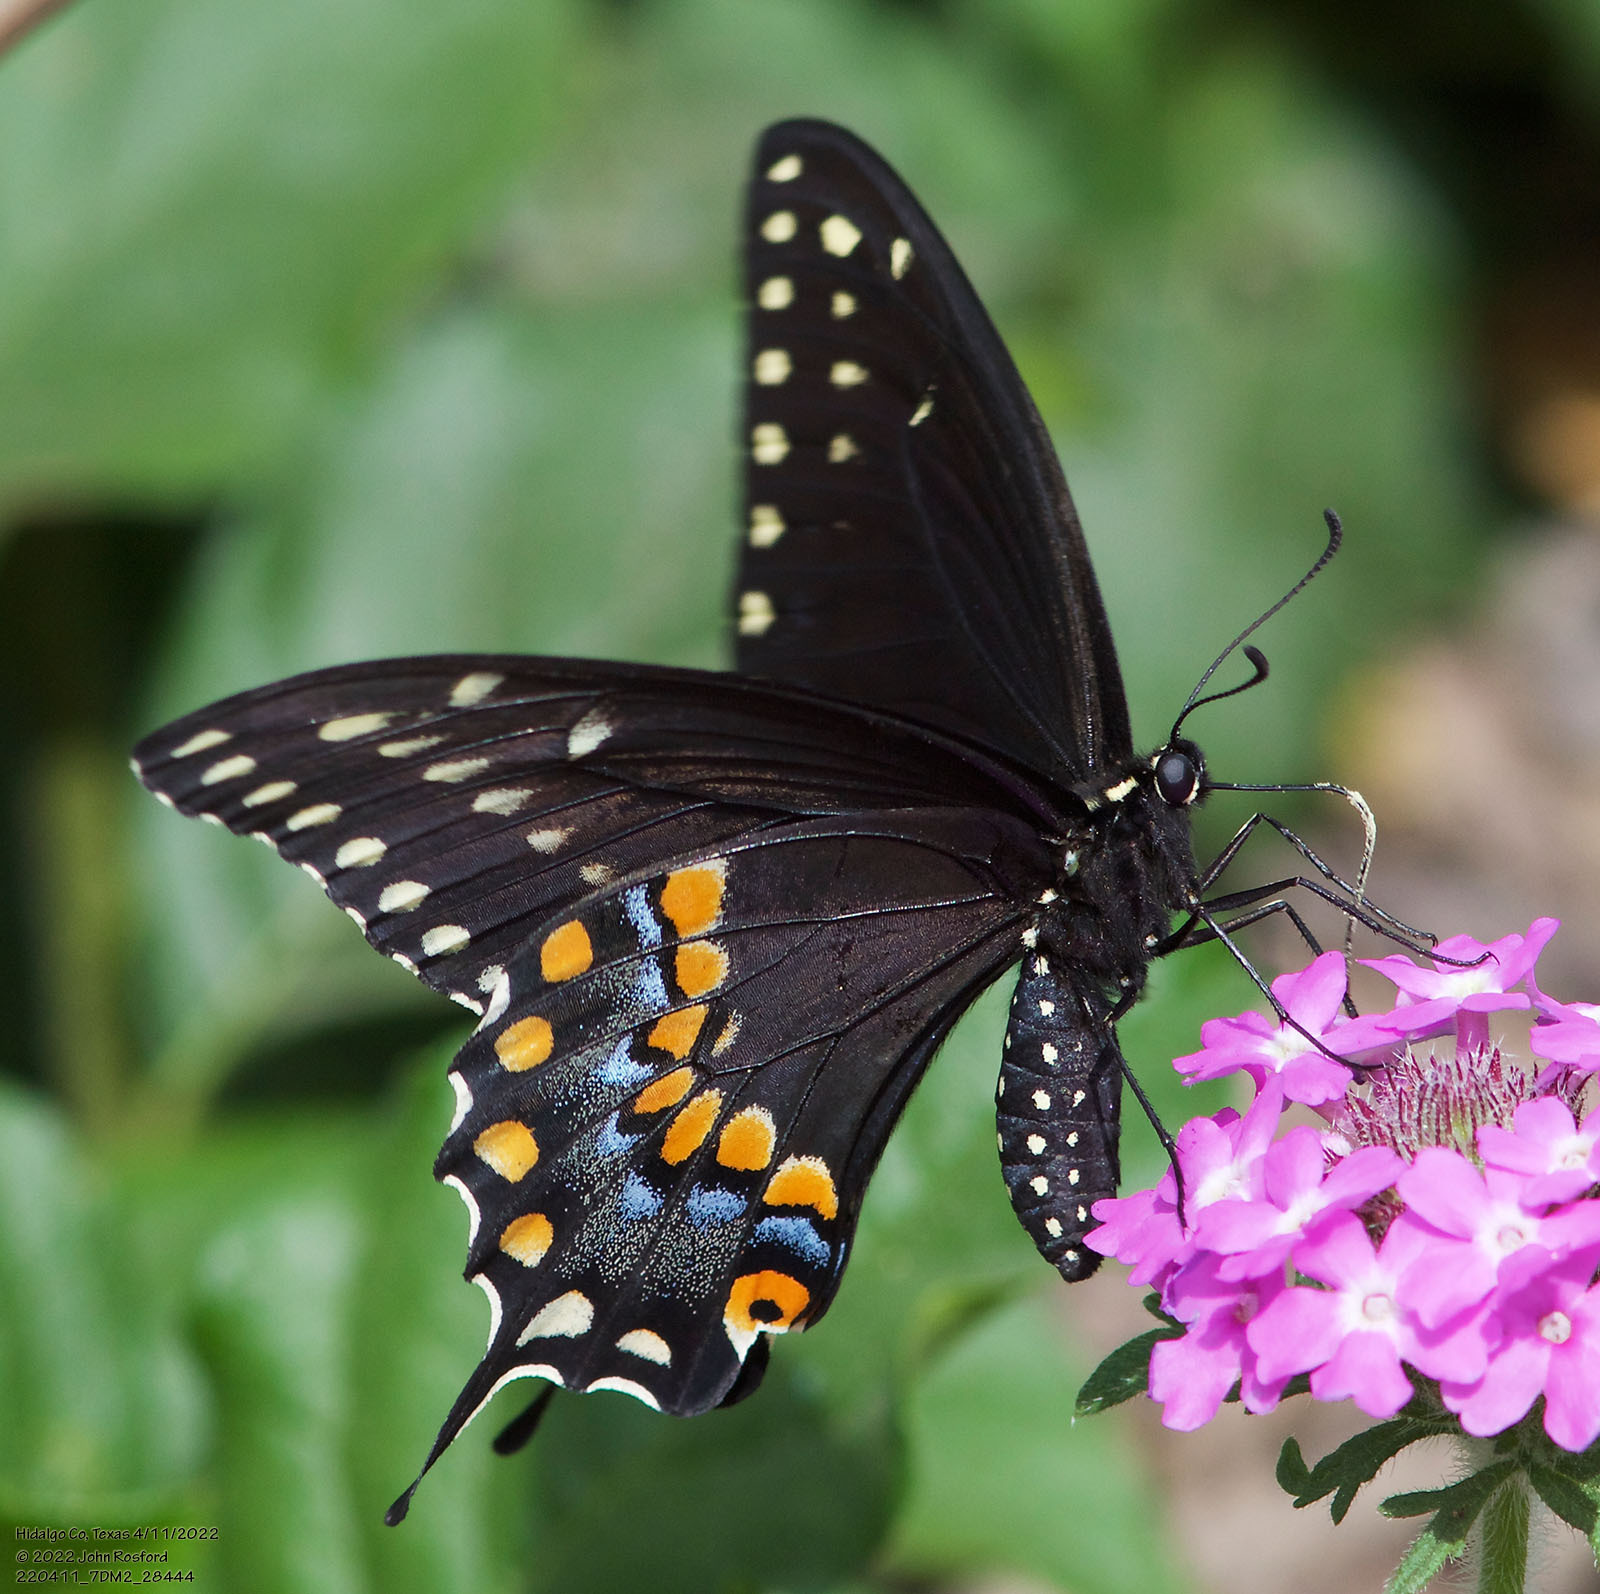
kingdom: Animalia
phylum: Arthropoda
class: Insecta
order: Lepidoptera
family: Papilionidae
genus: Papilio
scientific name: Papilio polyxenes
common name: Black swallowtail
